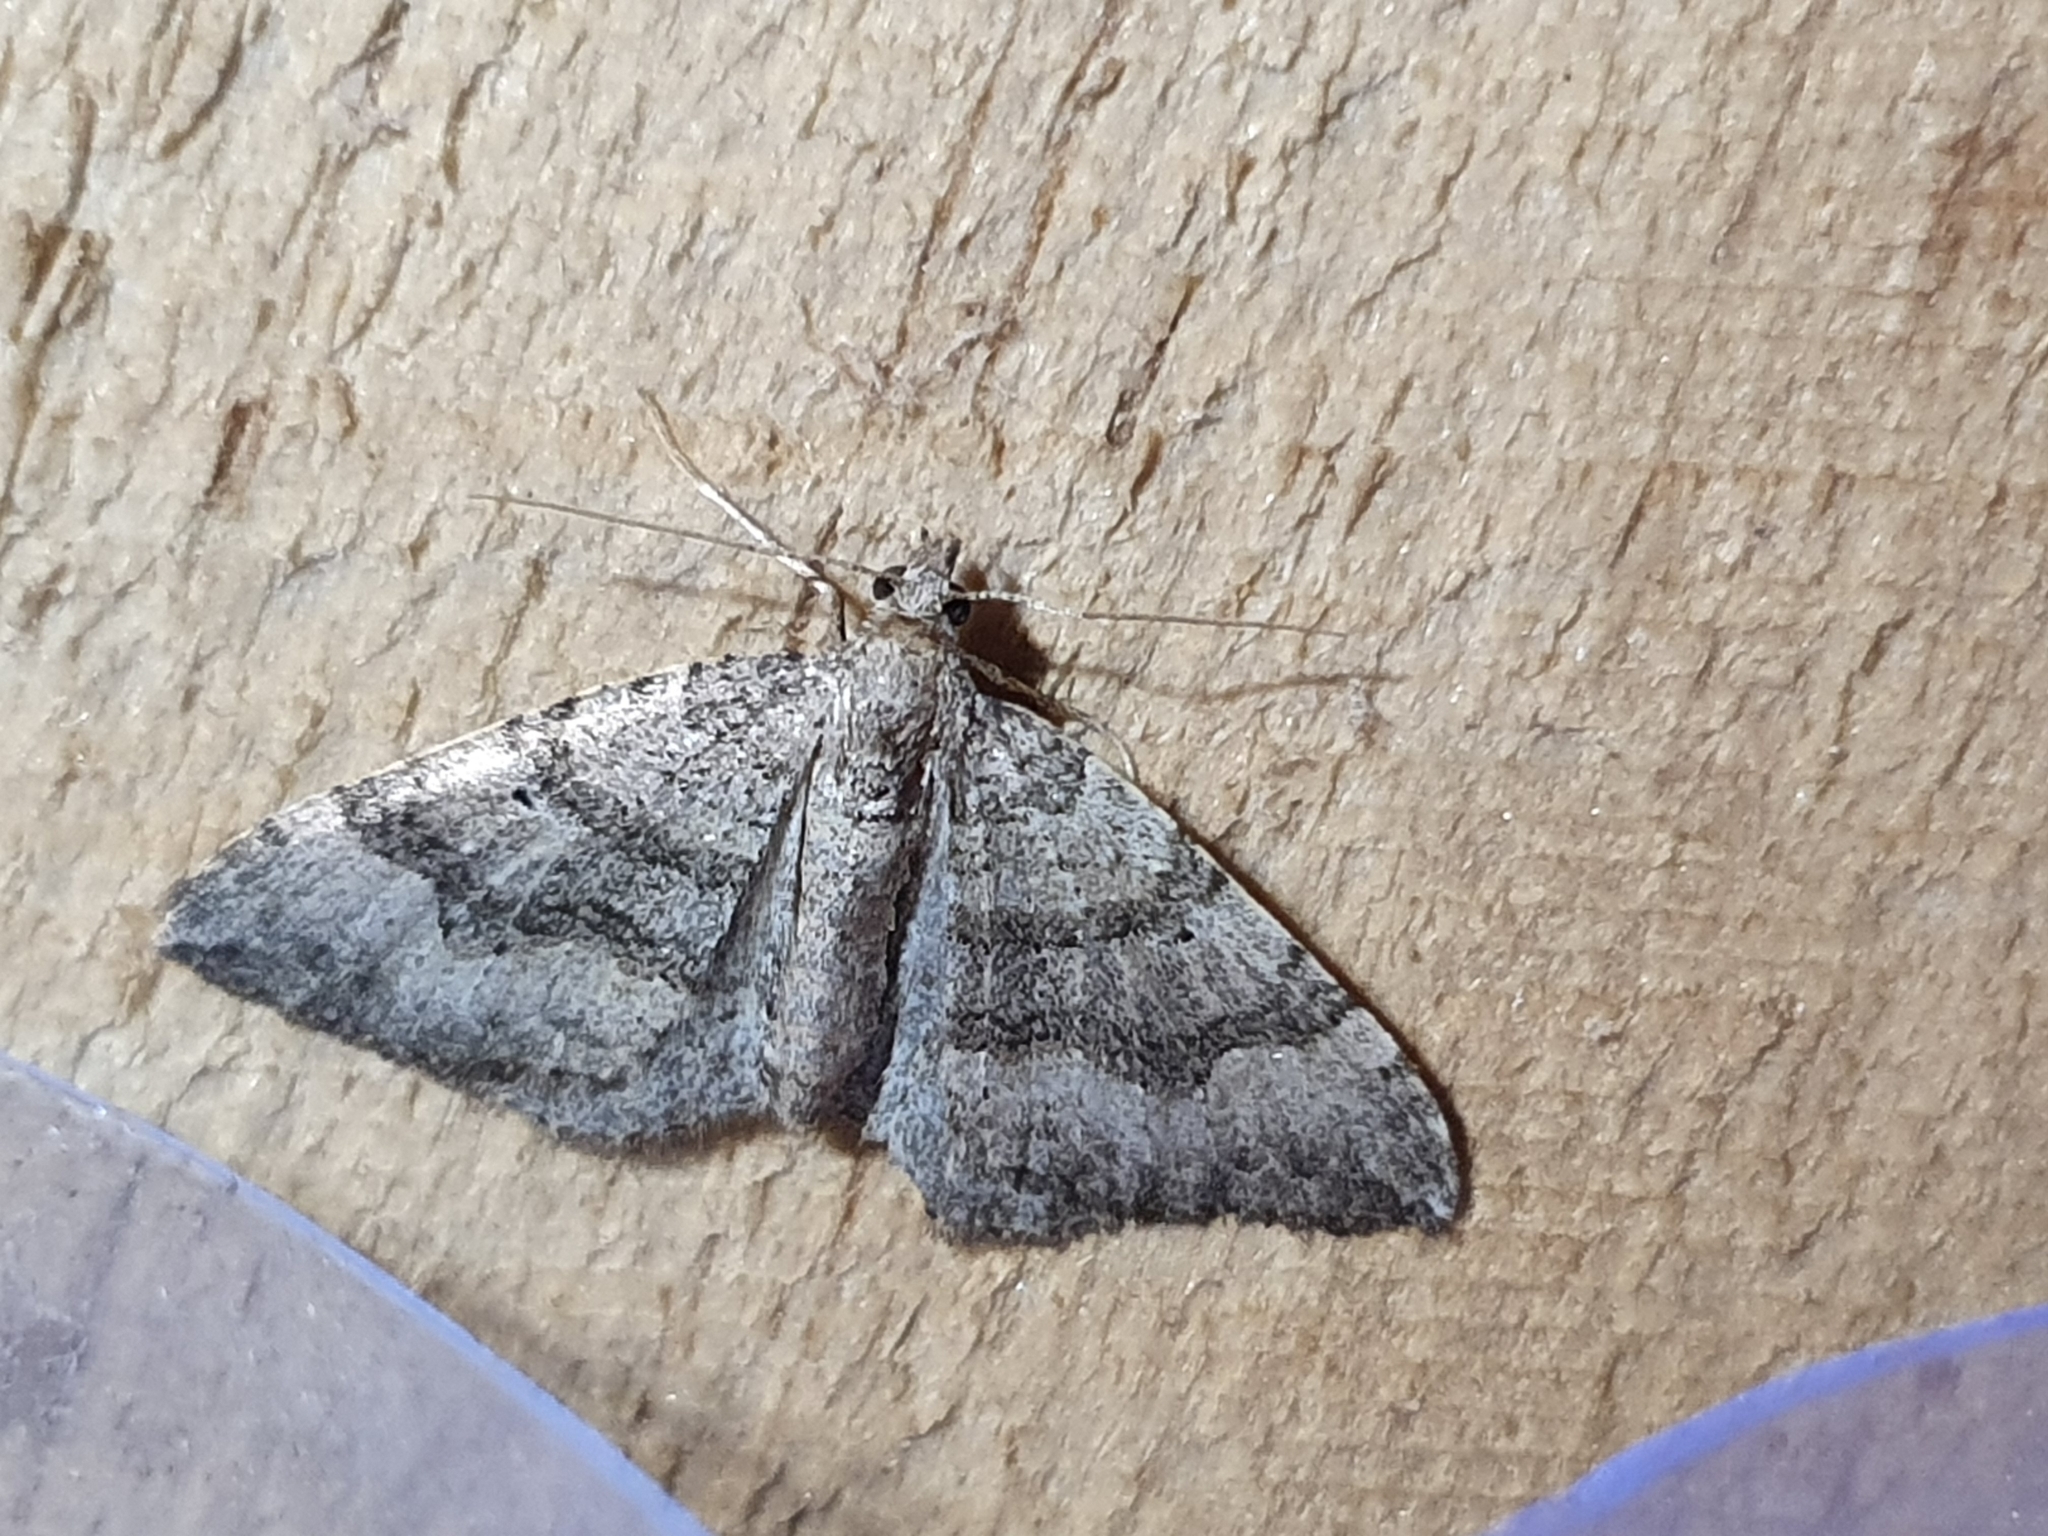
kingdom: Animalia
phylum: Arthropoda
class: Insecta
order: Lepidoptera
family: Geometridae
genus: Epyaxa
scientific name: Epyaxa rosearia
